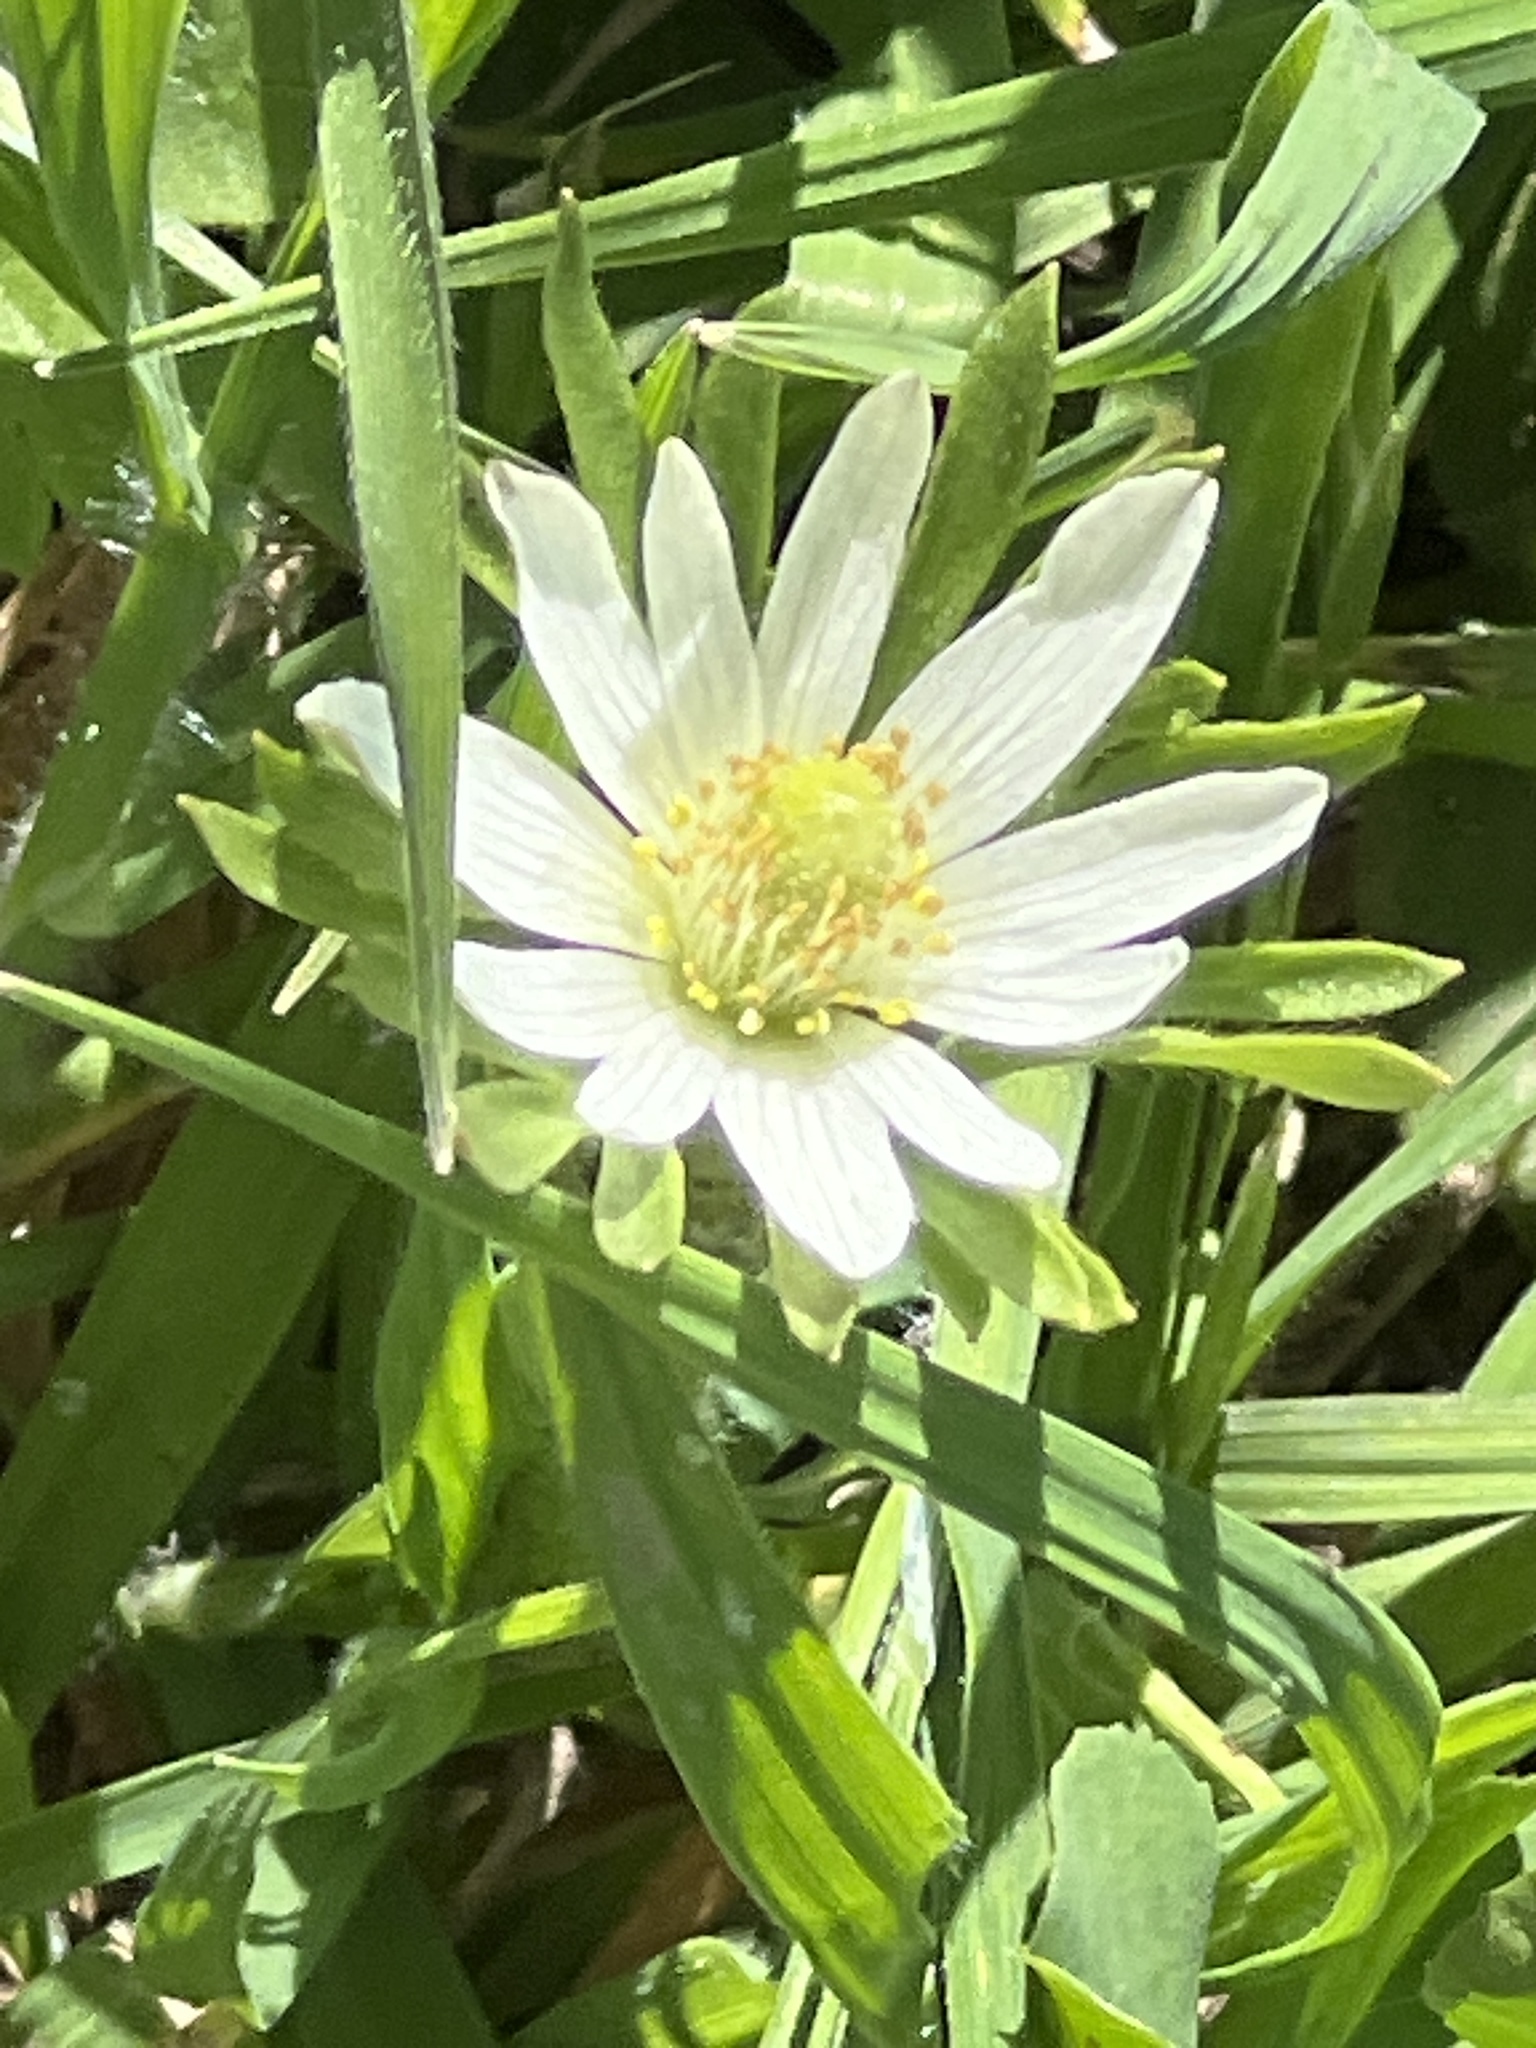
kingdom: Plantae
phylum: Tracheophyta
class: Magnoliopsida
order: Ranunculales
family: Ranunculaceae
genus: Anemone
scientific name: Anemone berlandieri
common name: Ten-petal anemone
